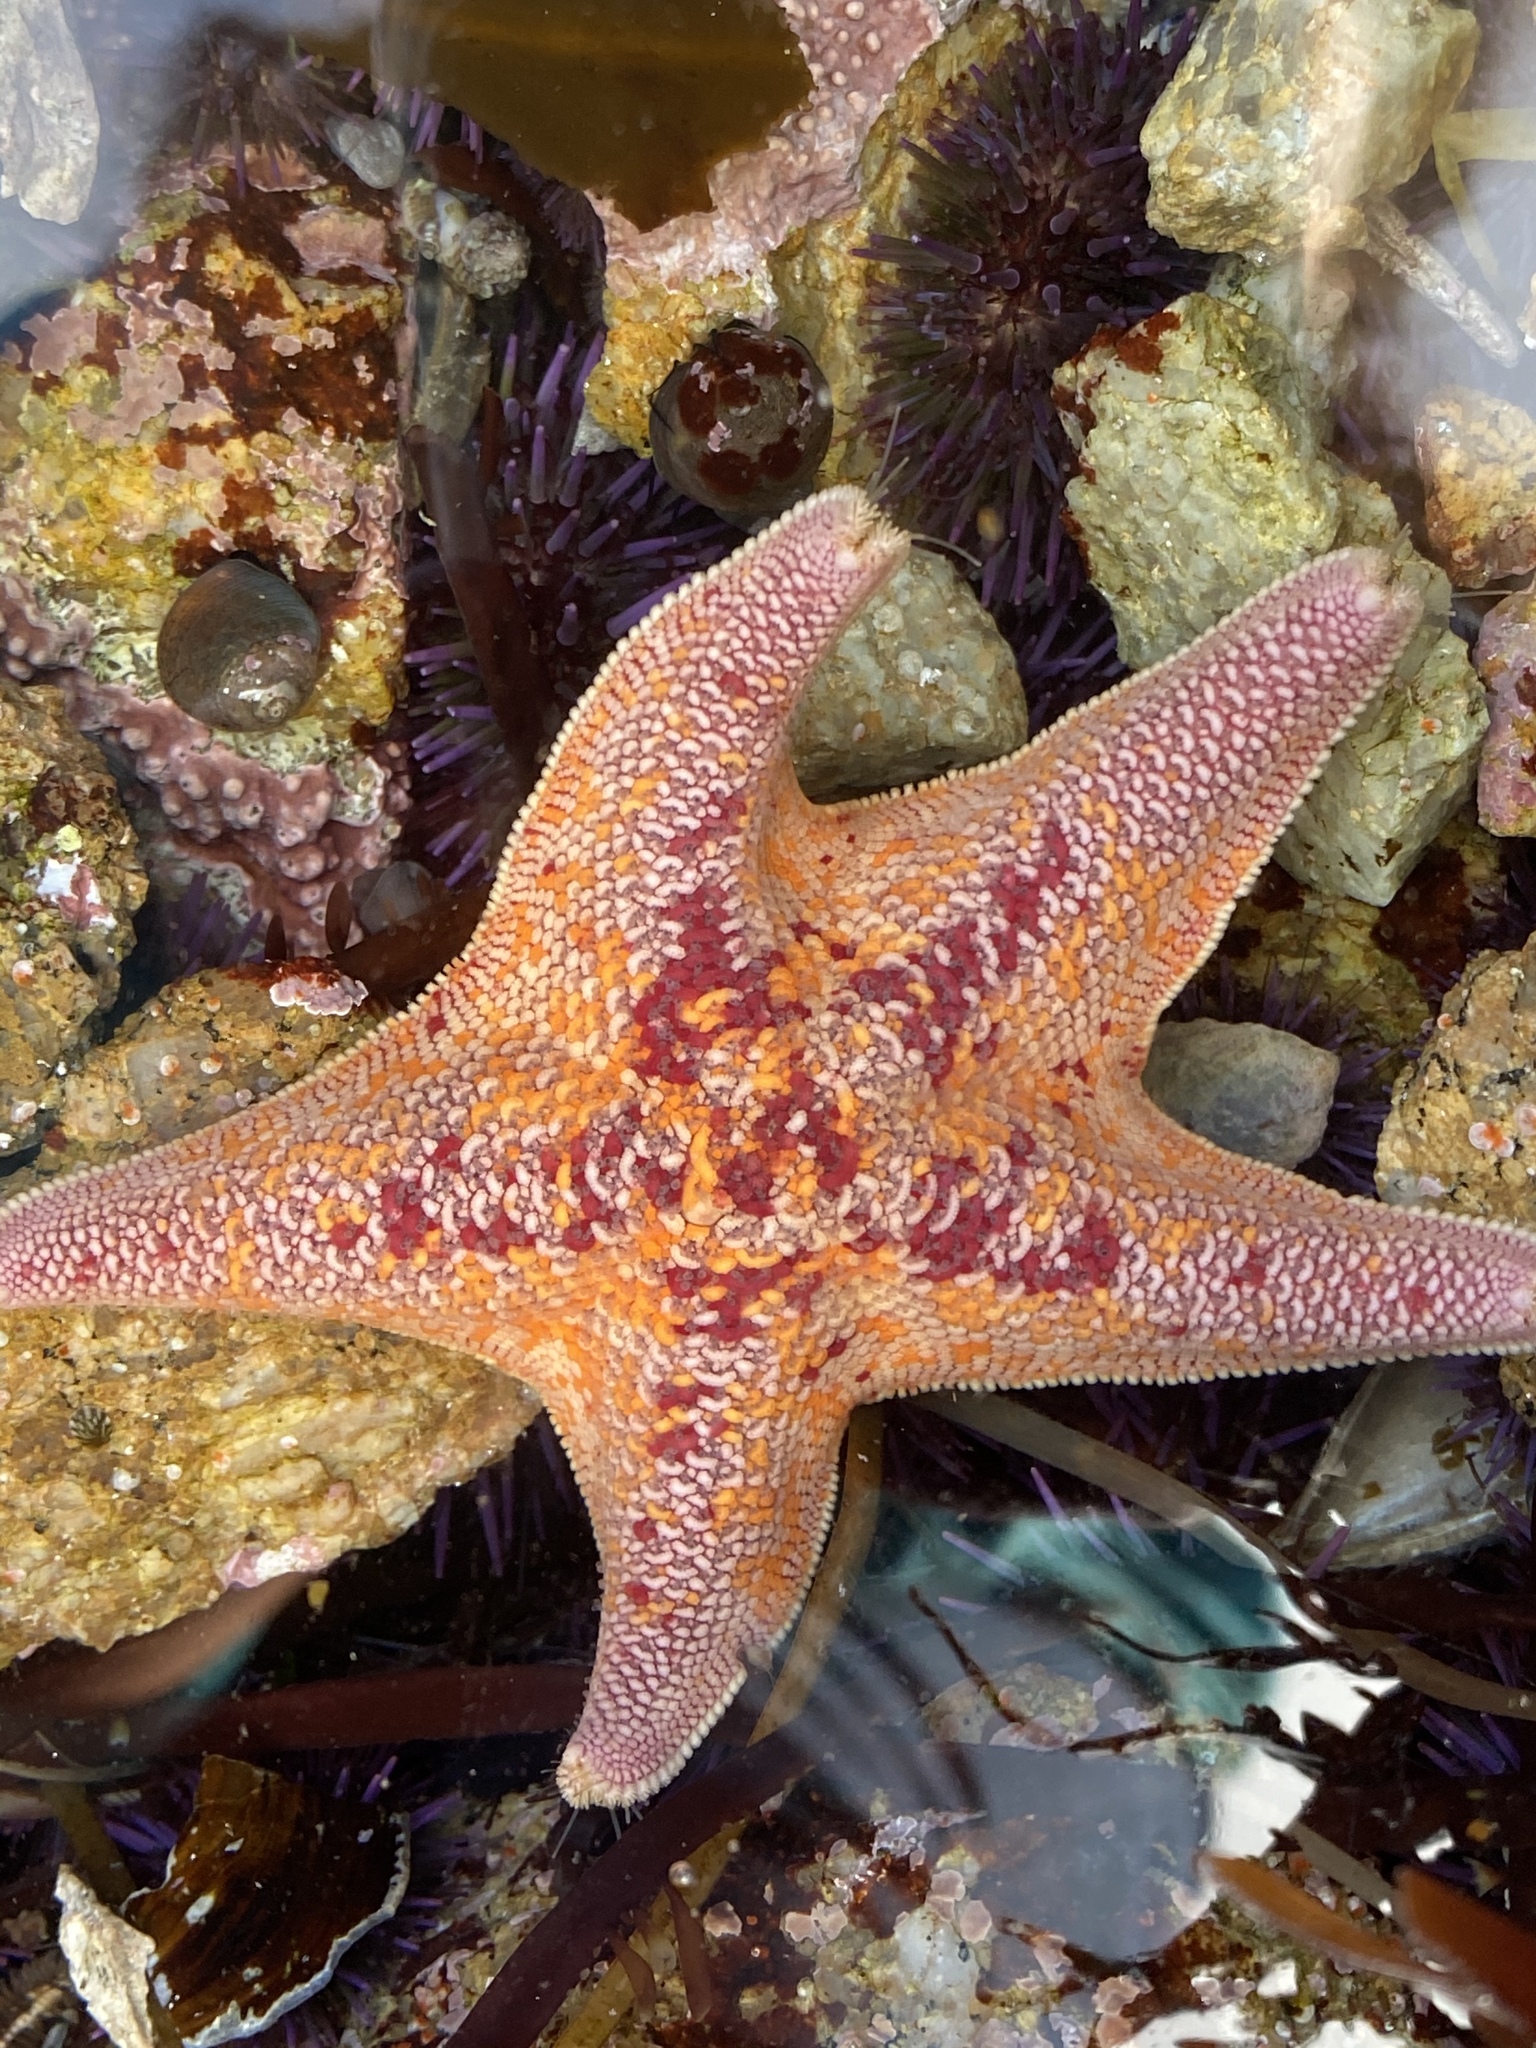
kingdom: Animalia
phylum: Echinodermata
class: Asteroidea
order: Valvatida
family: Asterinidae
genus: Patiria
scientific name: Patiria miniata
